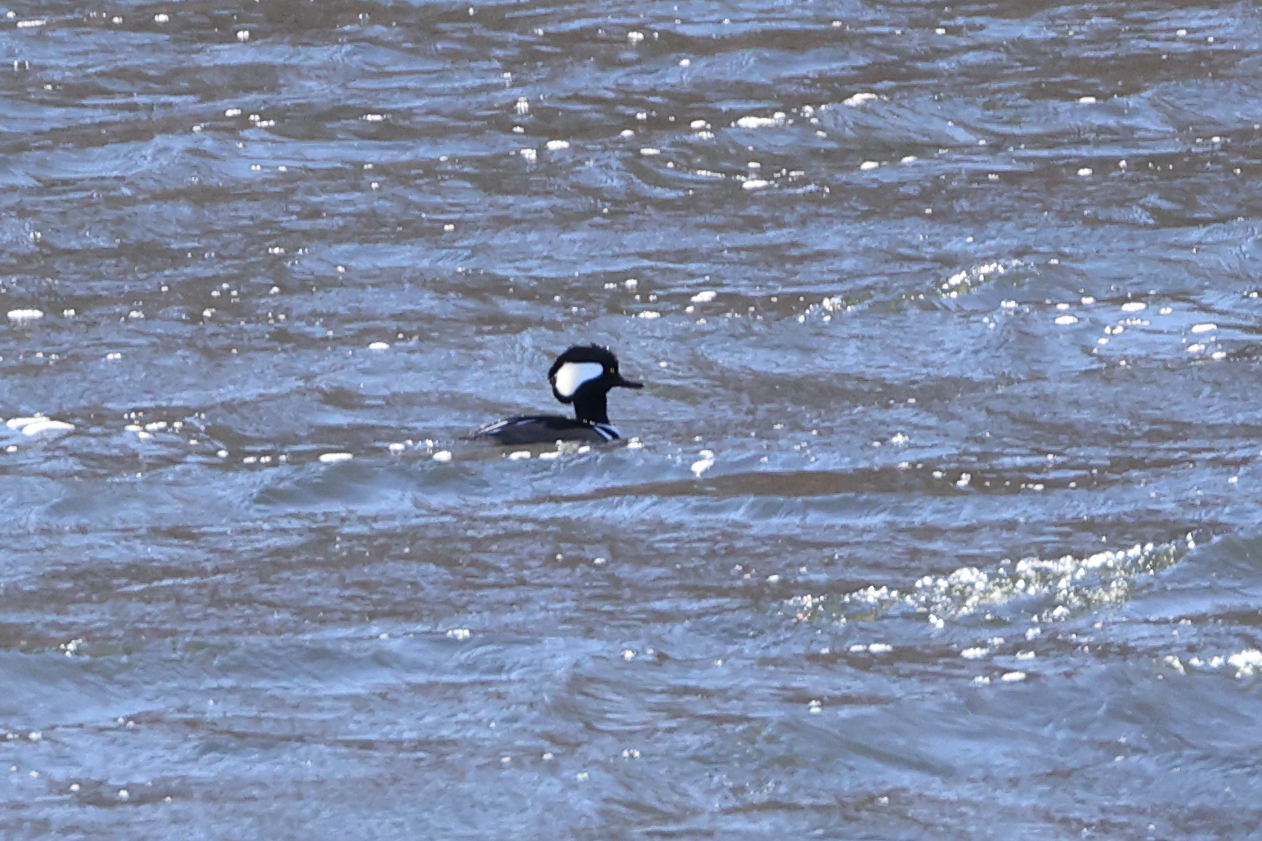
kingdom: Animalia
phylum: Chordata
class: Aves
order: Anseriformes
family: Anatidae
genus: Lophodytes
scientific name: Lophodytes cucullatus
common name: Hooded merganser
